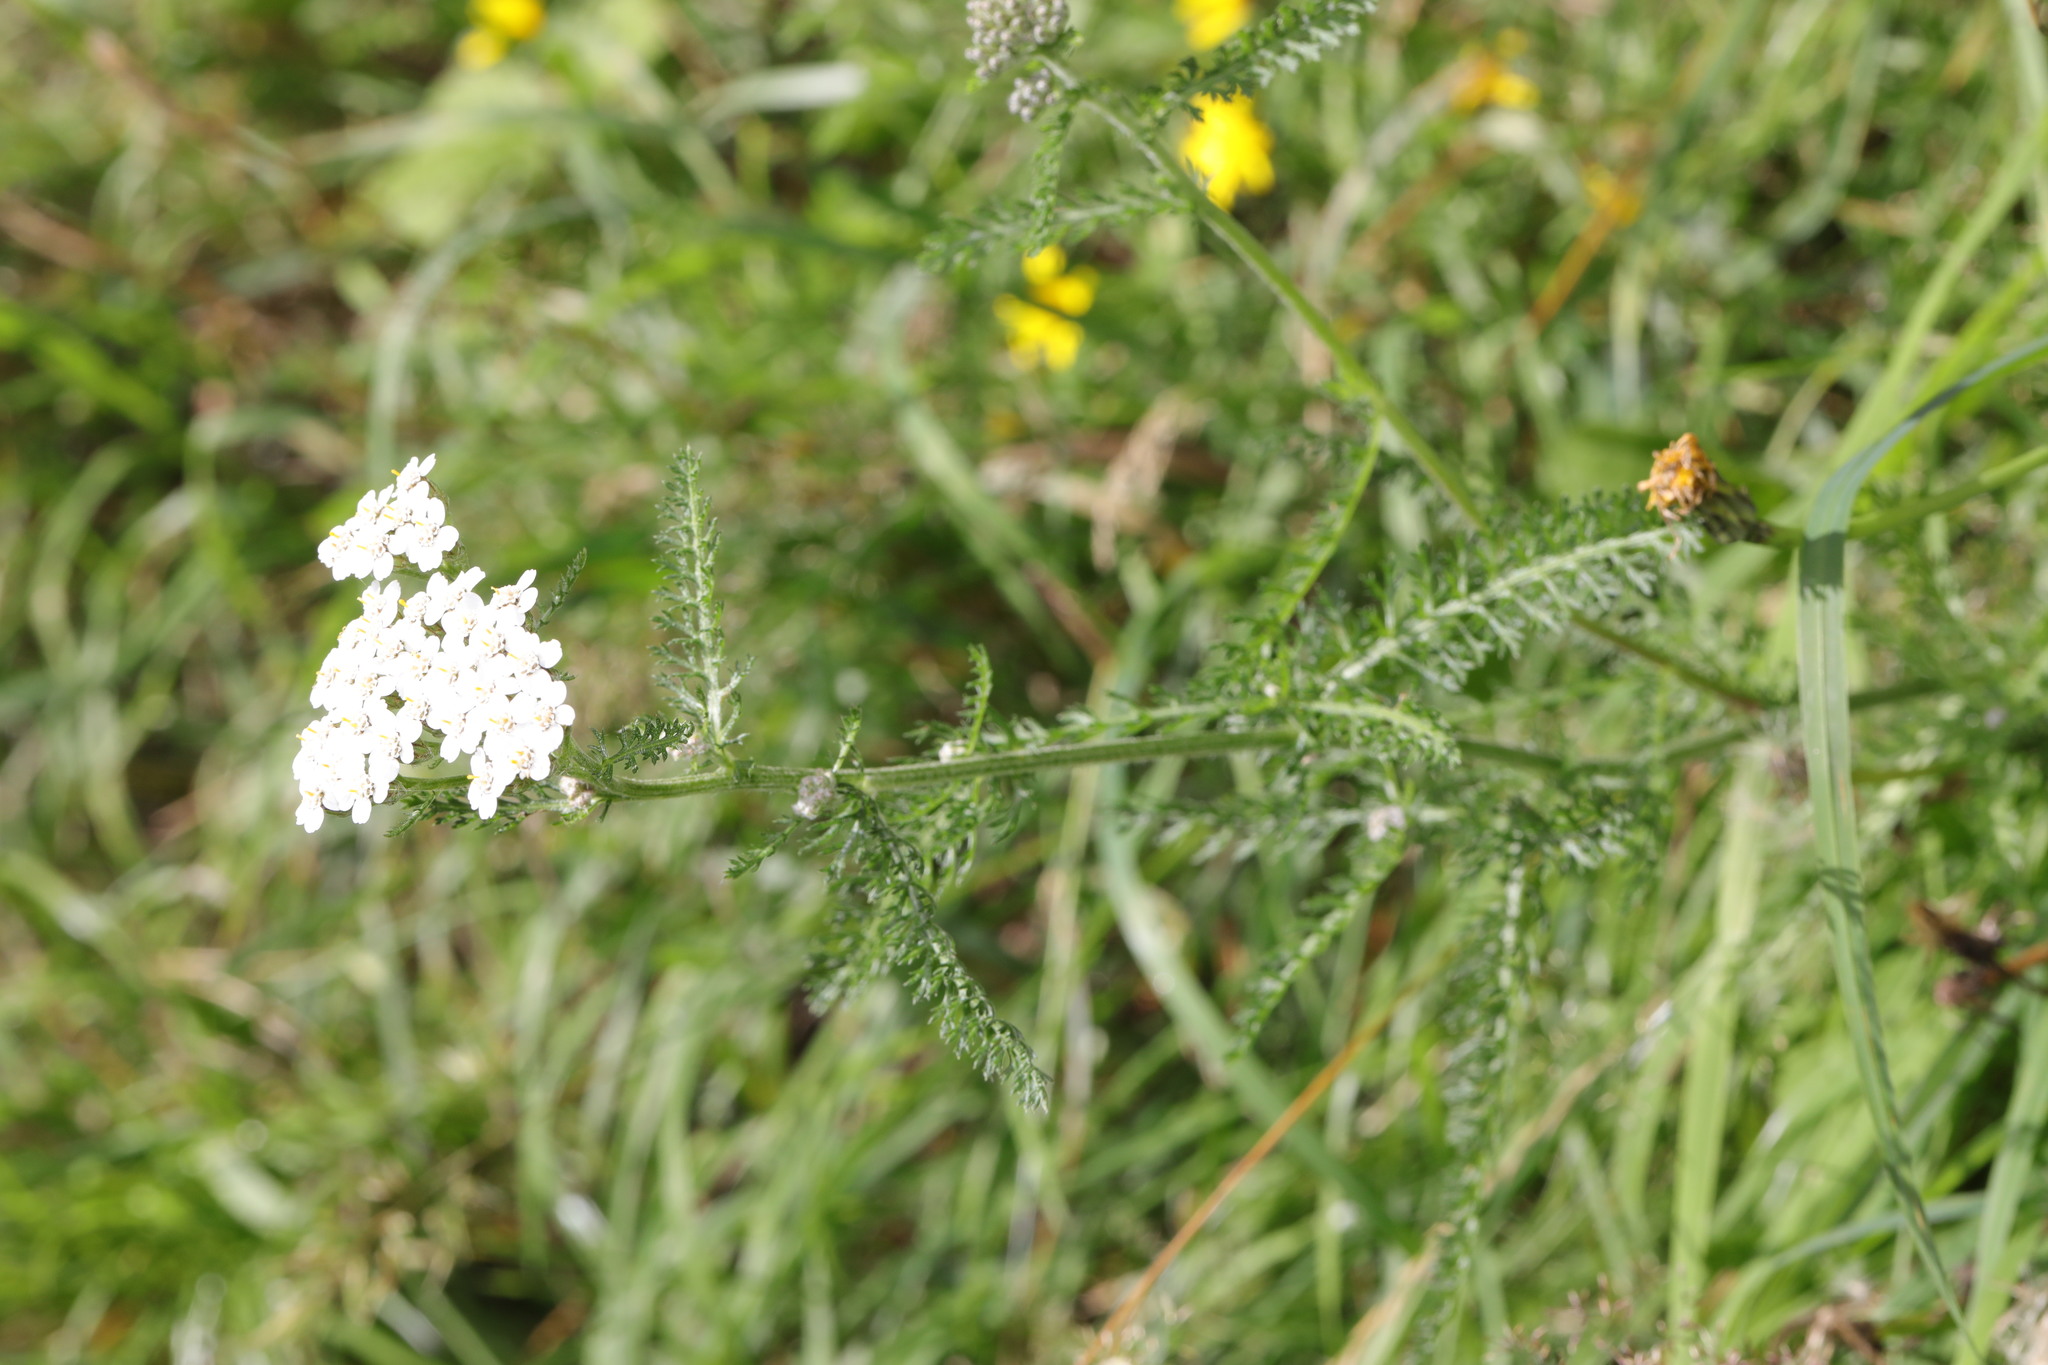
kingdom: Plantae
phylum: Tracheophyta
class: Magnoliopsida
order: Asterales
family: Asteraceae
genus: Achillea
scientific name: Achillea millefolium
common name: Yarrow
